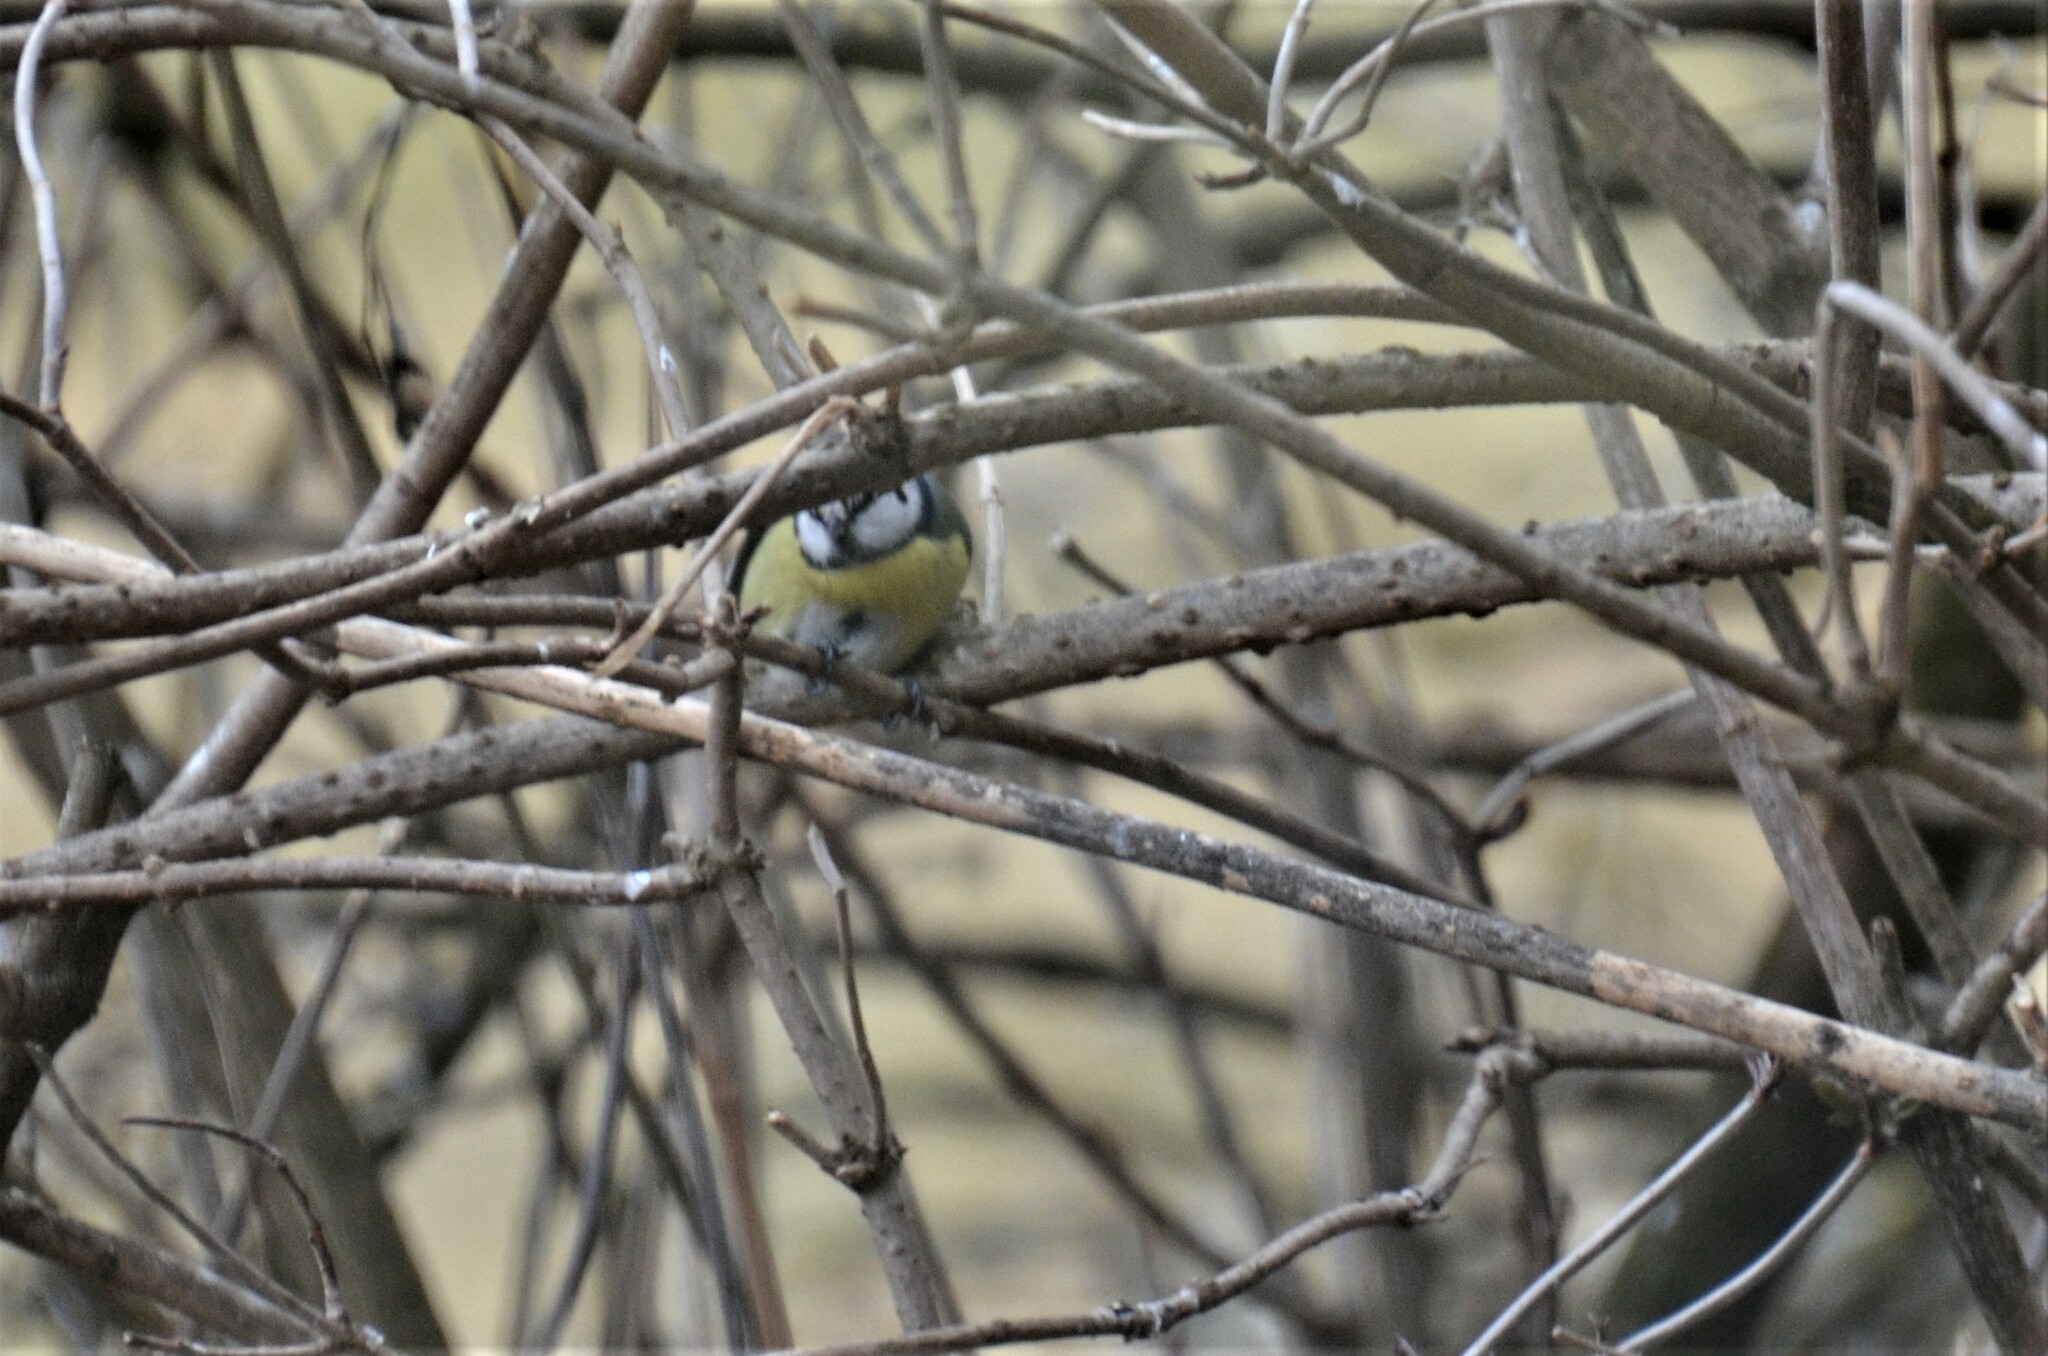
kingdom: Animalia
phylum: Chordata
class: Aves
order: Passeriformes
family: Paridae
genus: Cyanistes
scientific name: Cyanistes caeruleus
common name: Eurasian blue tit
